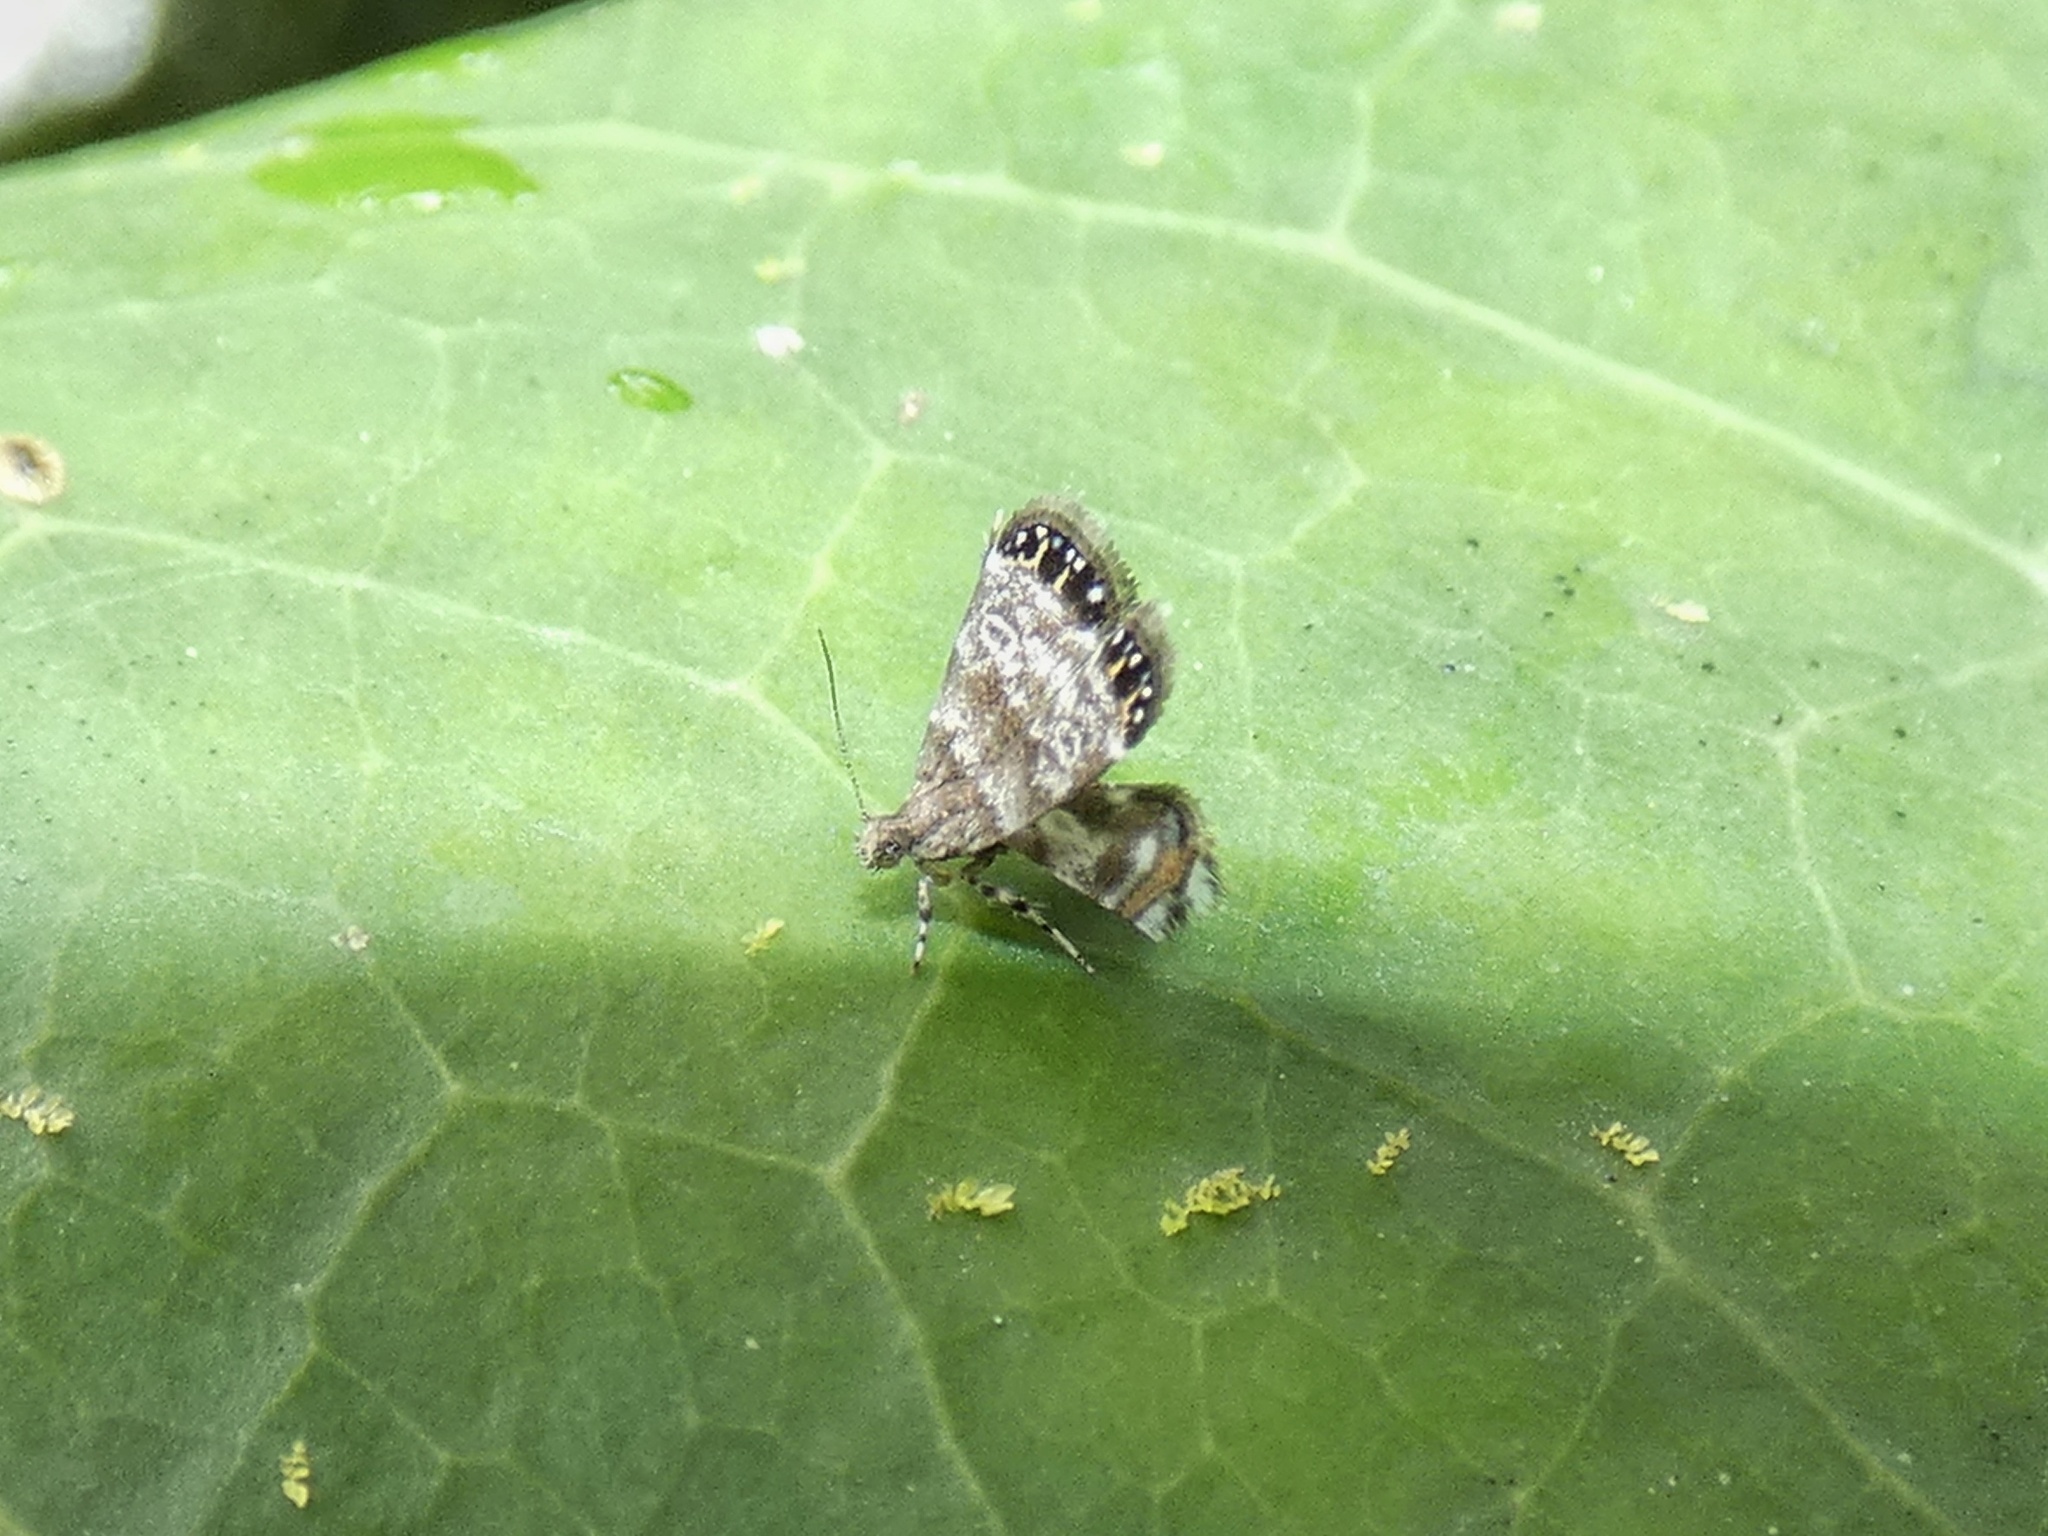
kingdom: Animalia
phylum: Arthropoda
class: Insecta
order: Lepidoptera
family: Choreutidae
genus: Brenthia
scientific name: Brenthia quadriforella
